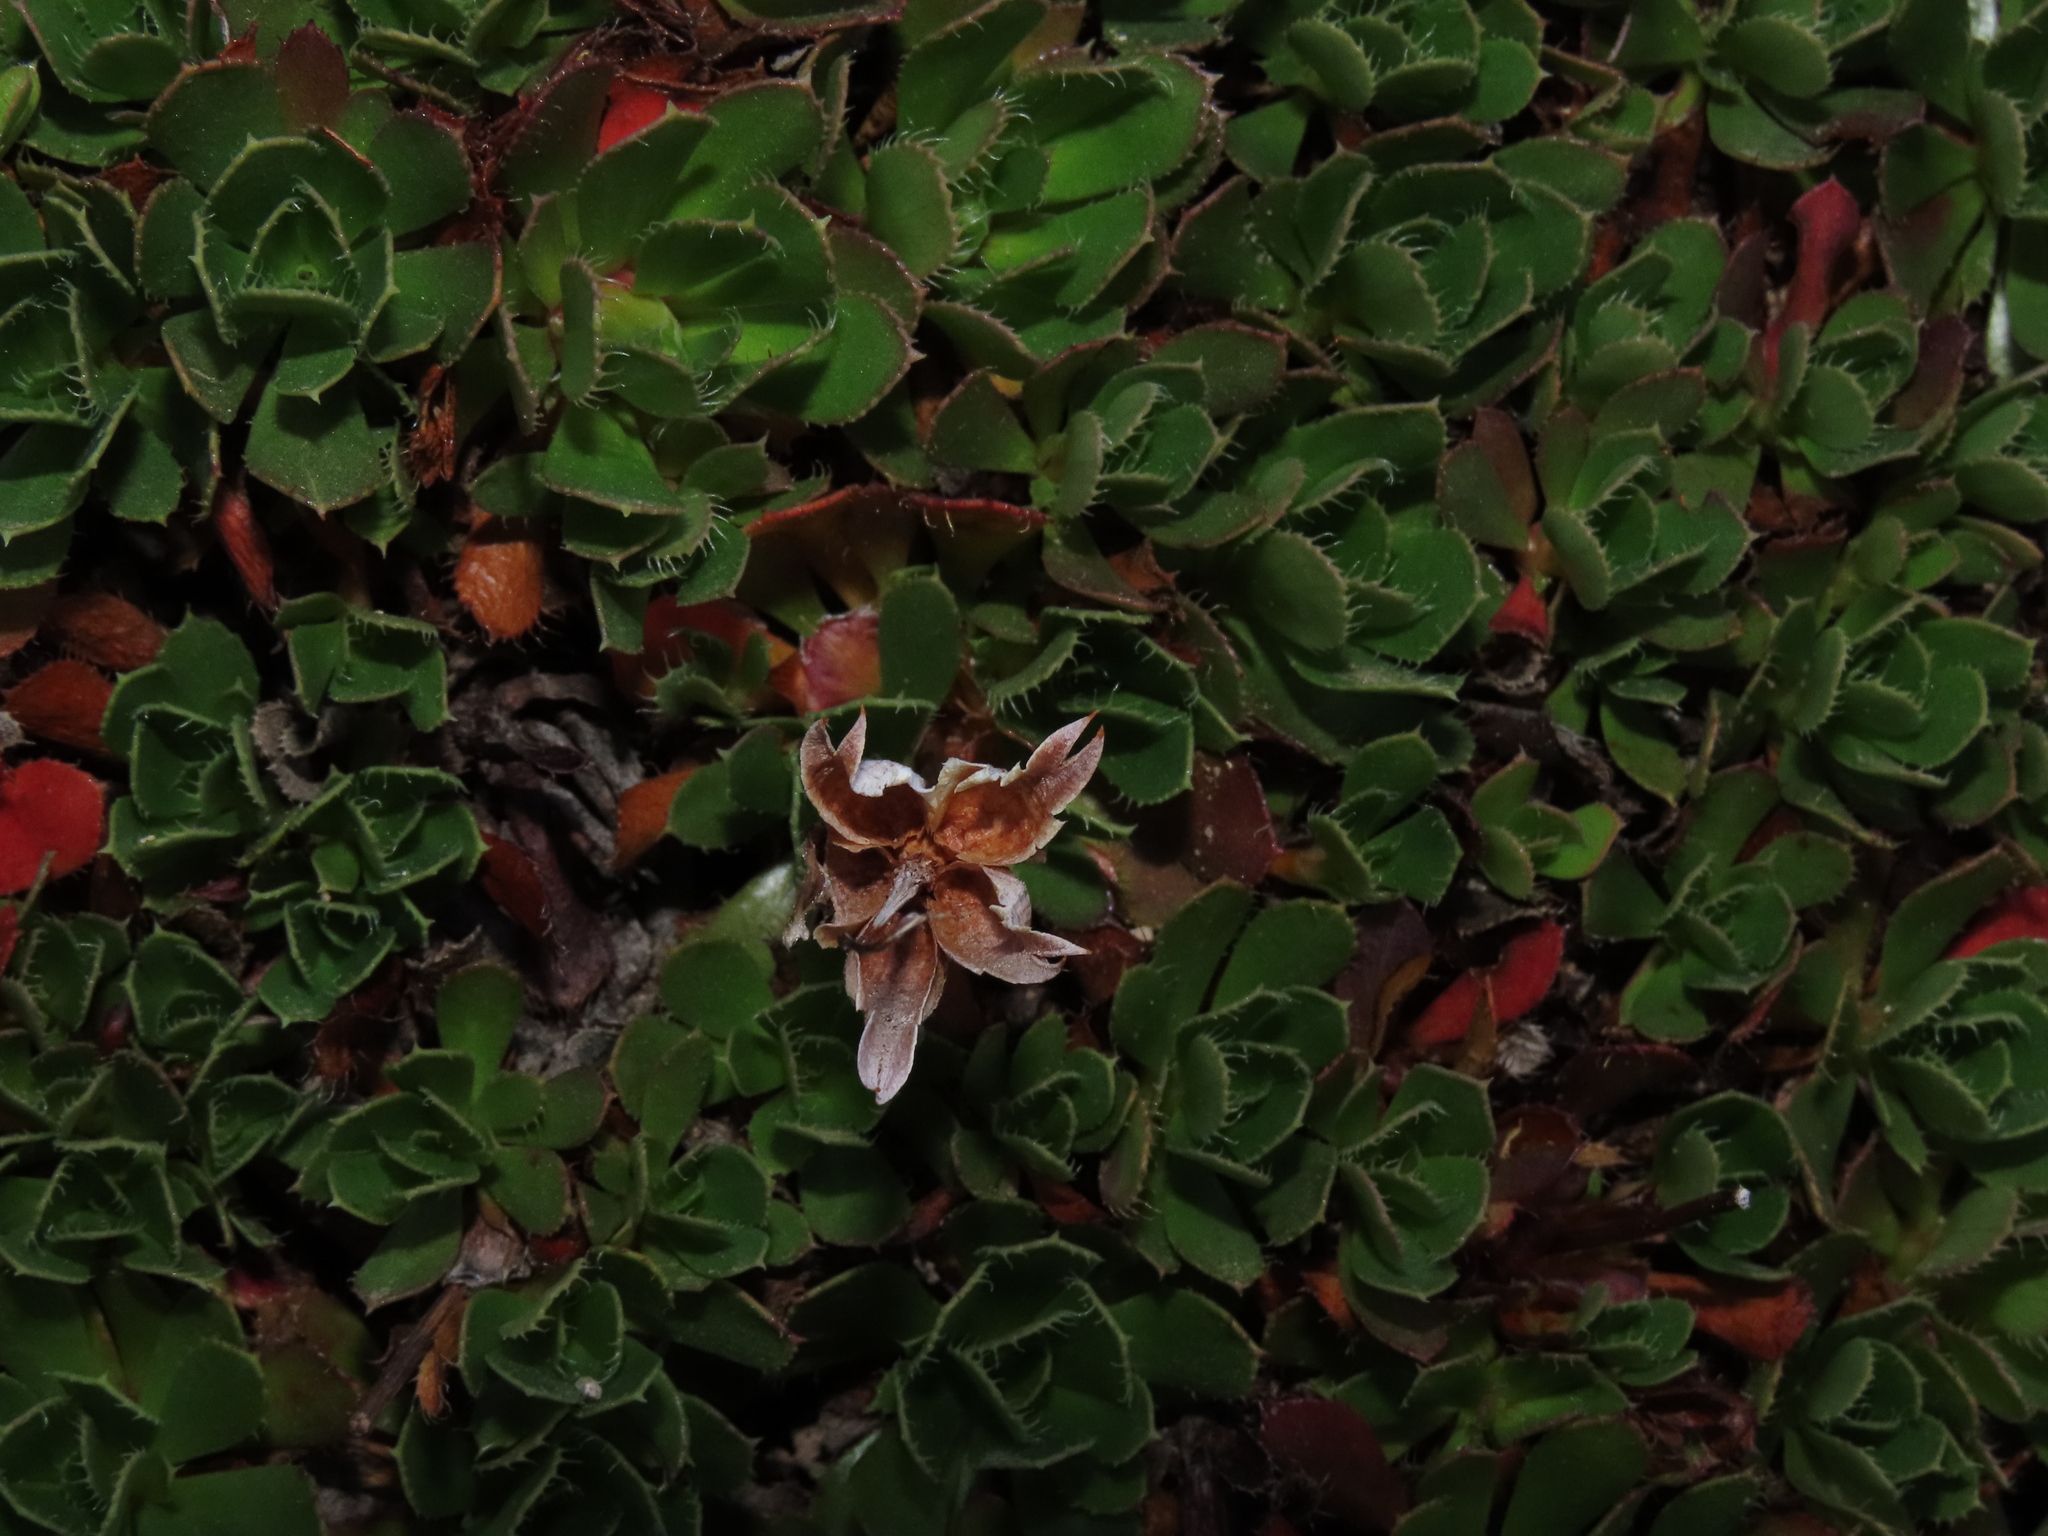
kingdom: Plantae
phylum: Tracheophyta
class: Magnoliopsida
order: Escalloniales
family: Escalloniaceae
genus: Rayenia
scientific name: Rayenia malalcurensis
